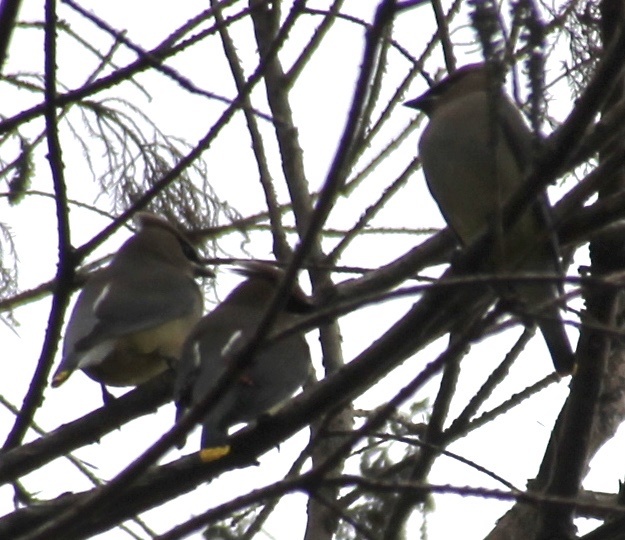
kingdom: Animalia
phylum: Chordata
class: Aves
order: Passeriformes
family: Bombycillidae
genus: Bombycilla
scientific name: Bombycilla cedrorum
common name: Cedar waxwing
